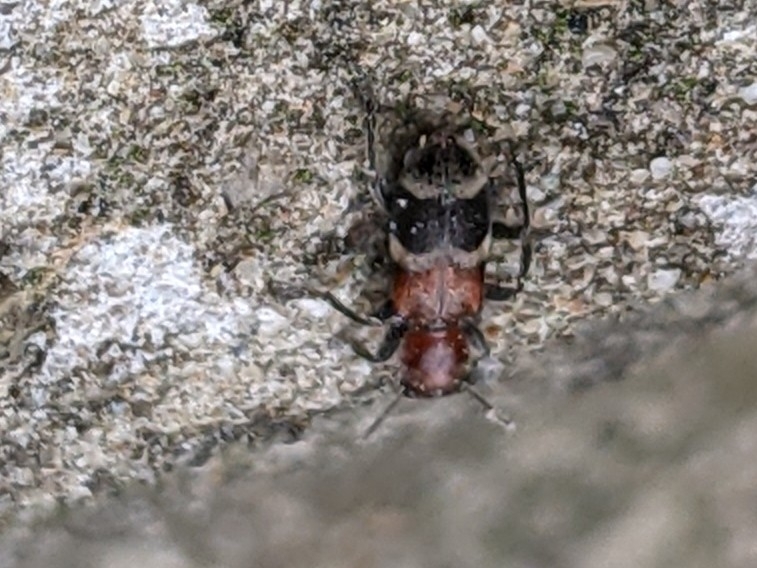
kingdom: Animalia
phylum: Arthropoda
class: Insecta
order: Coleoptera
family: Cleridae
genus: Enoclerus
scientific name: Enoclerus nigripes
